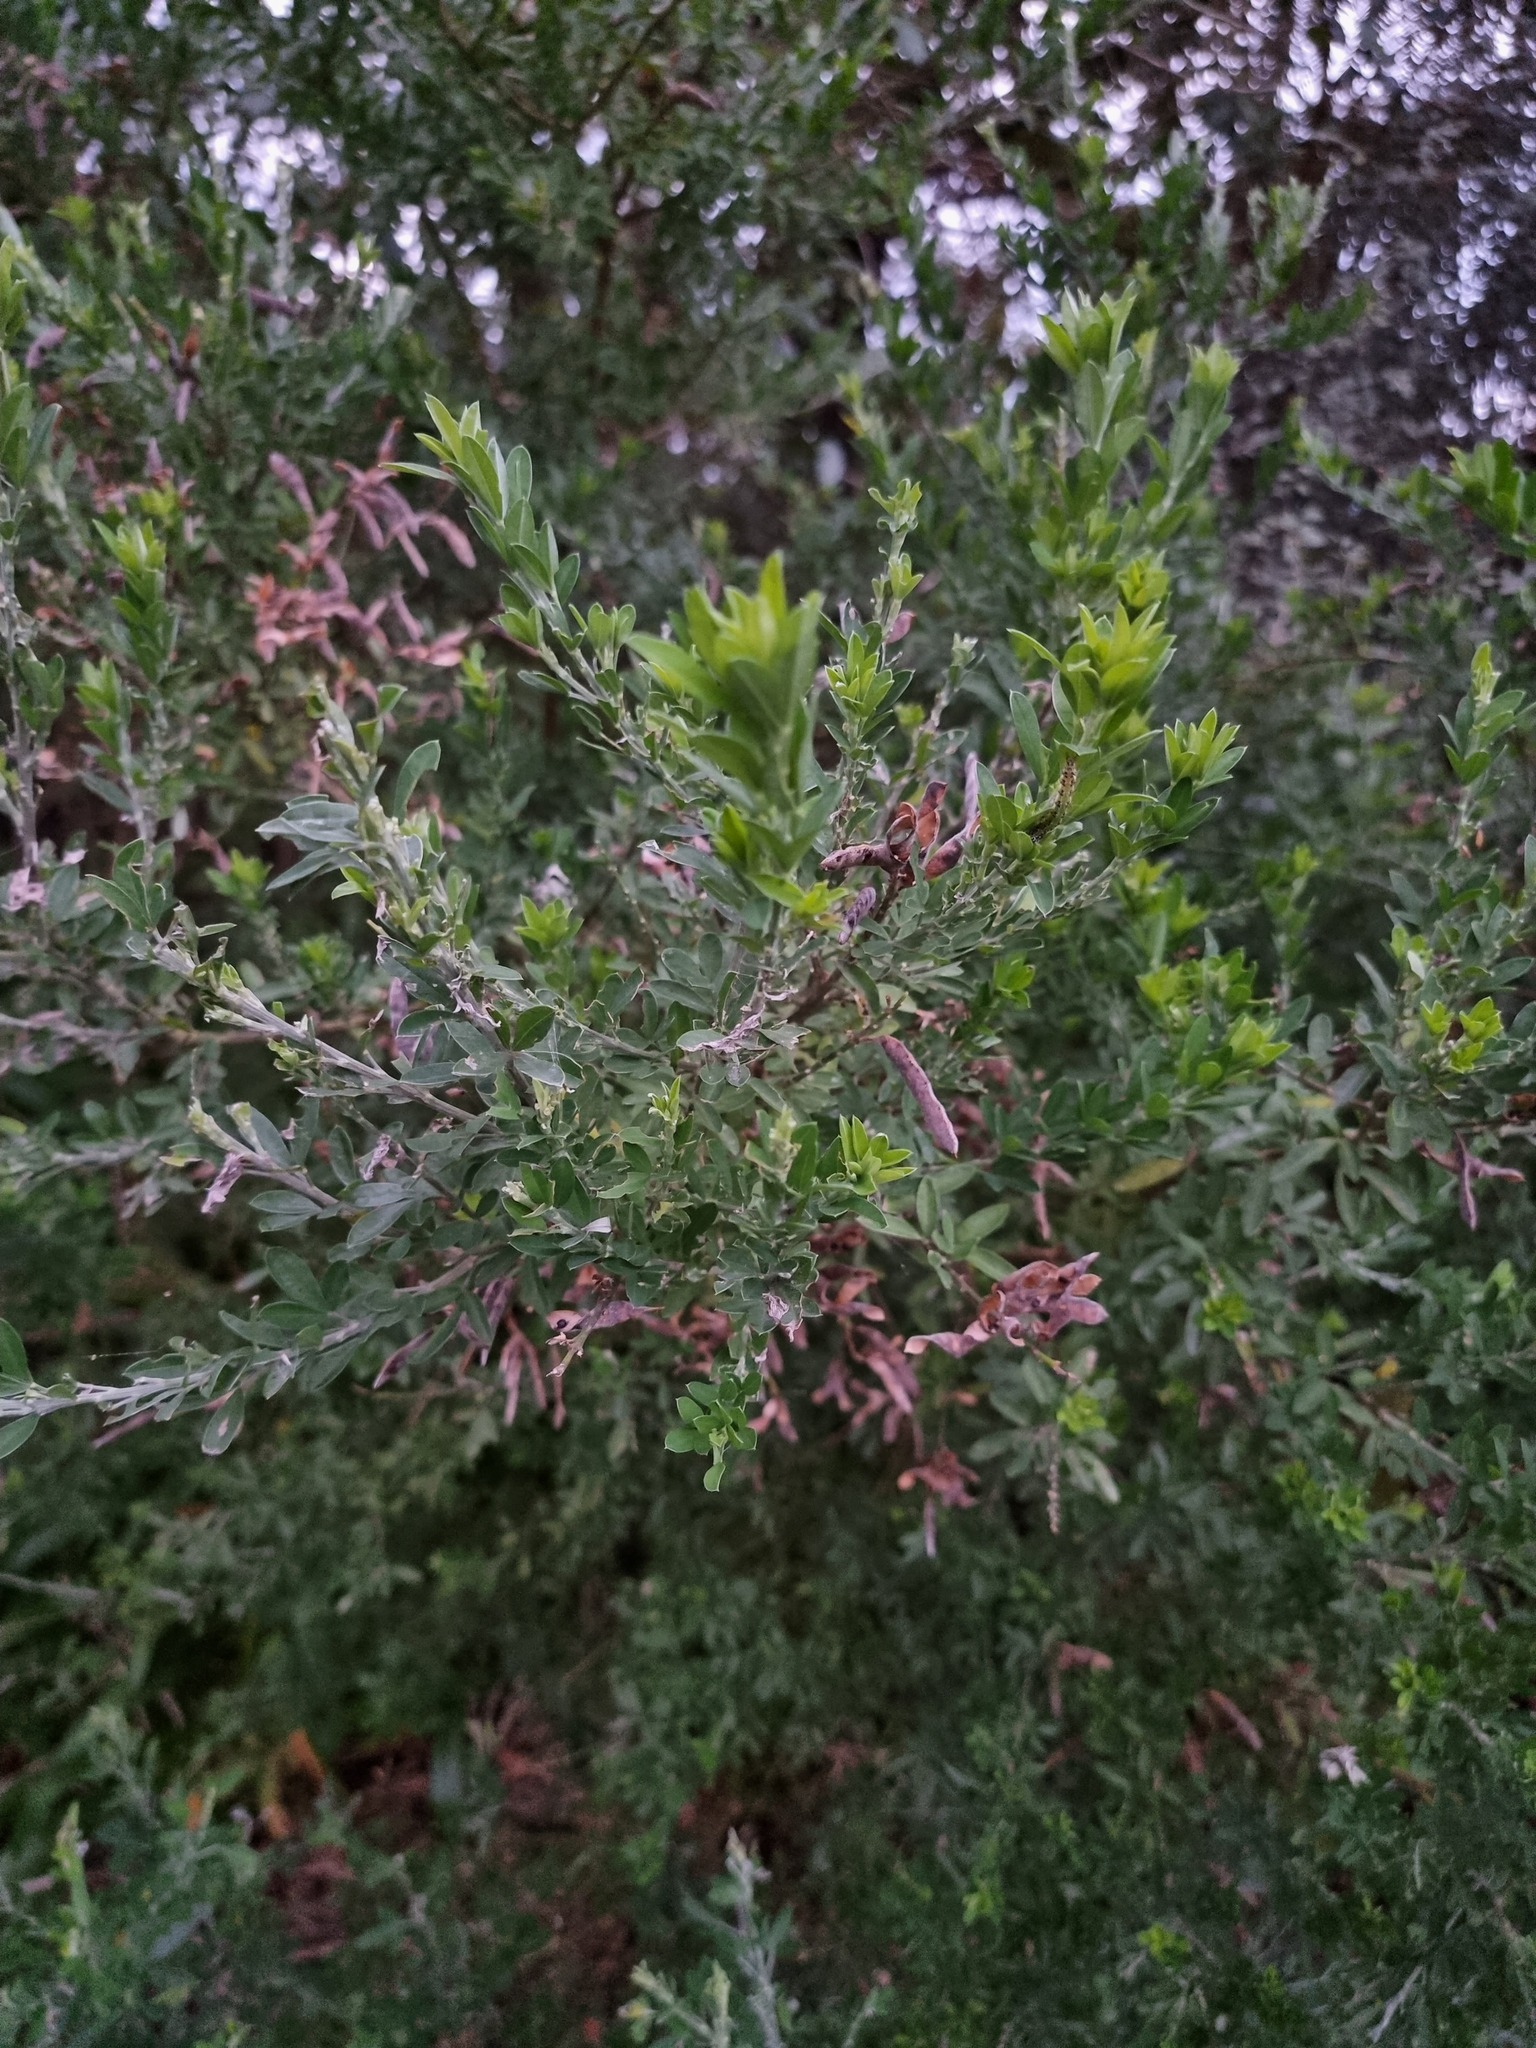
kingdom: Plantae
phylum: Tracheophyta
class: Magnoliopsida
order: Fabales
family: Fabaceae
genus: Genista
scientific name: Genista stenopetala
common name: Leafy broom
